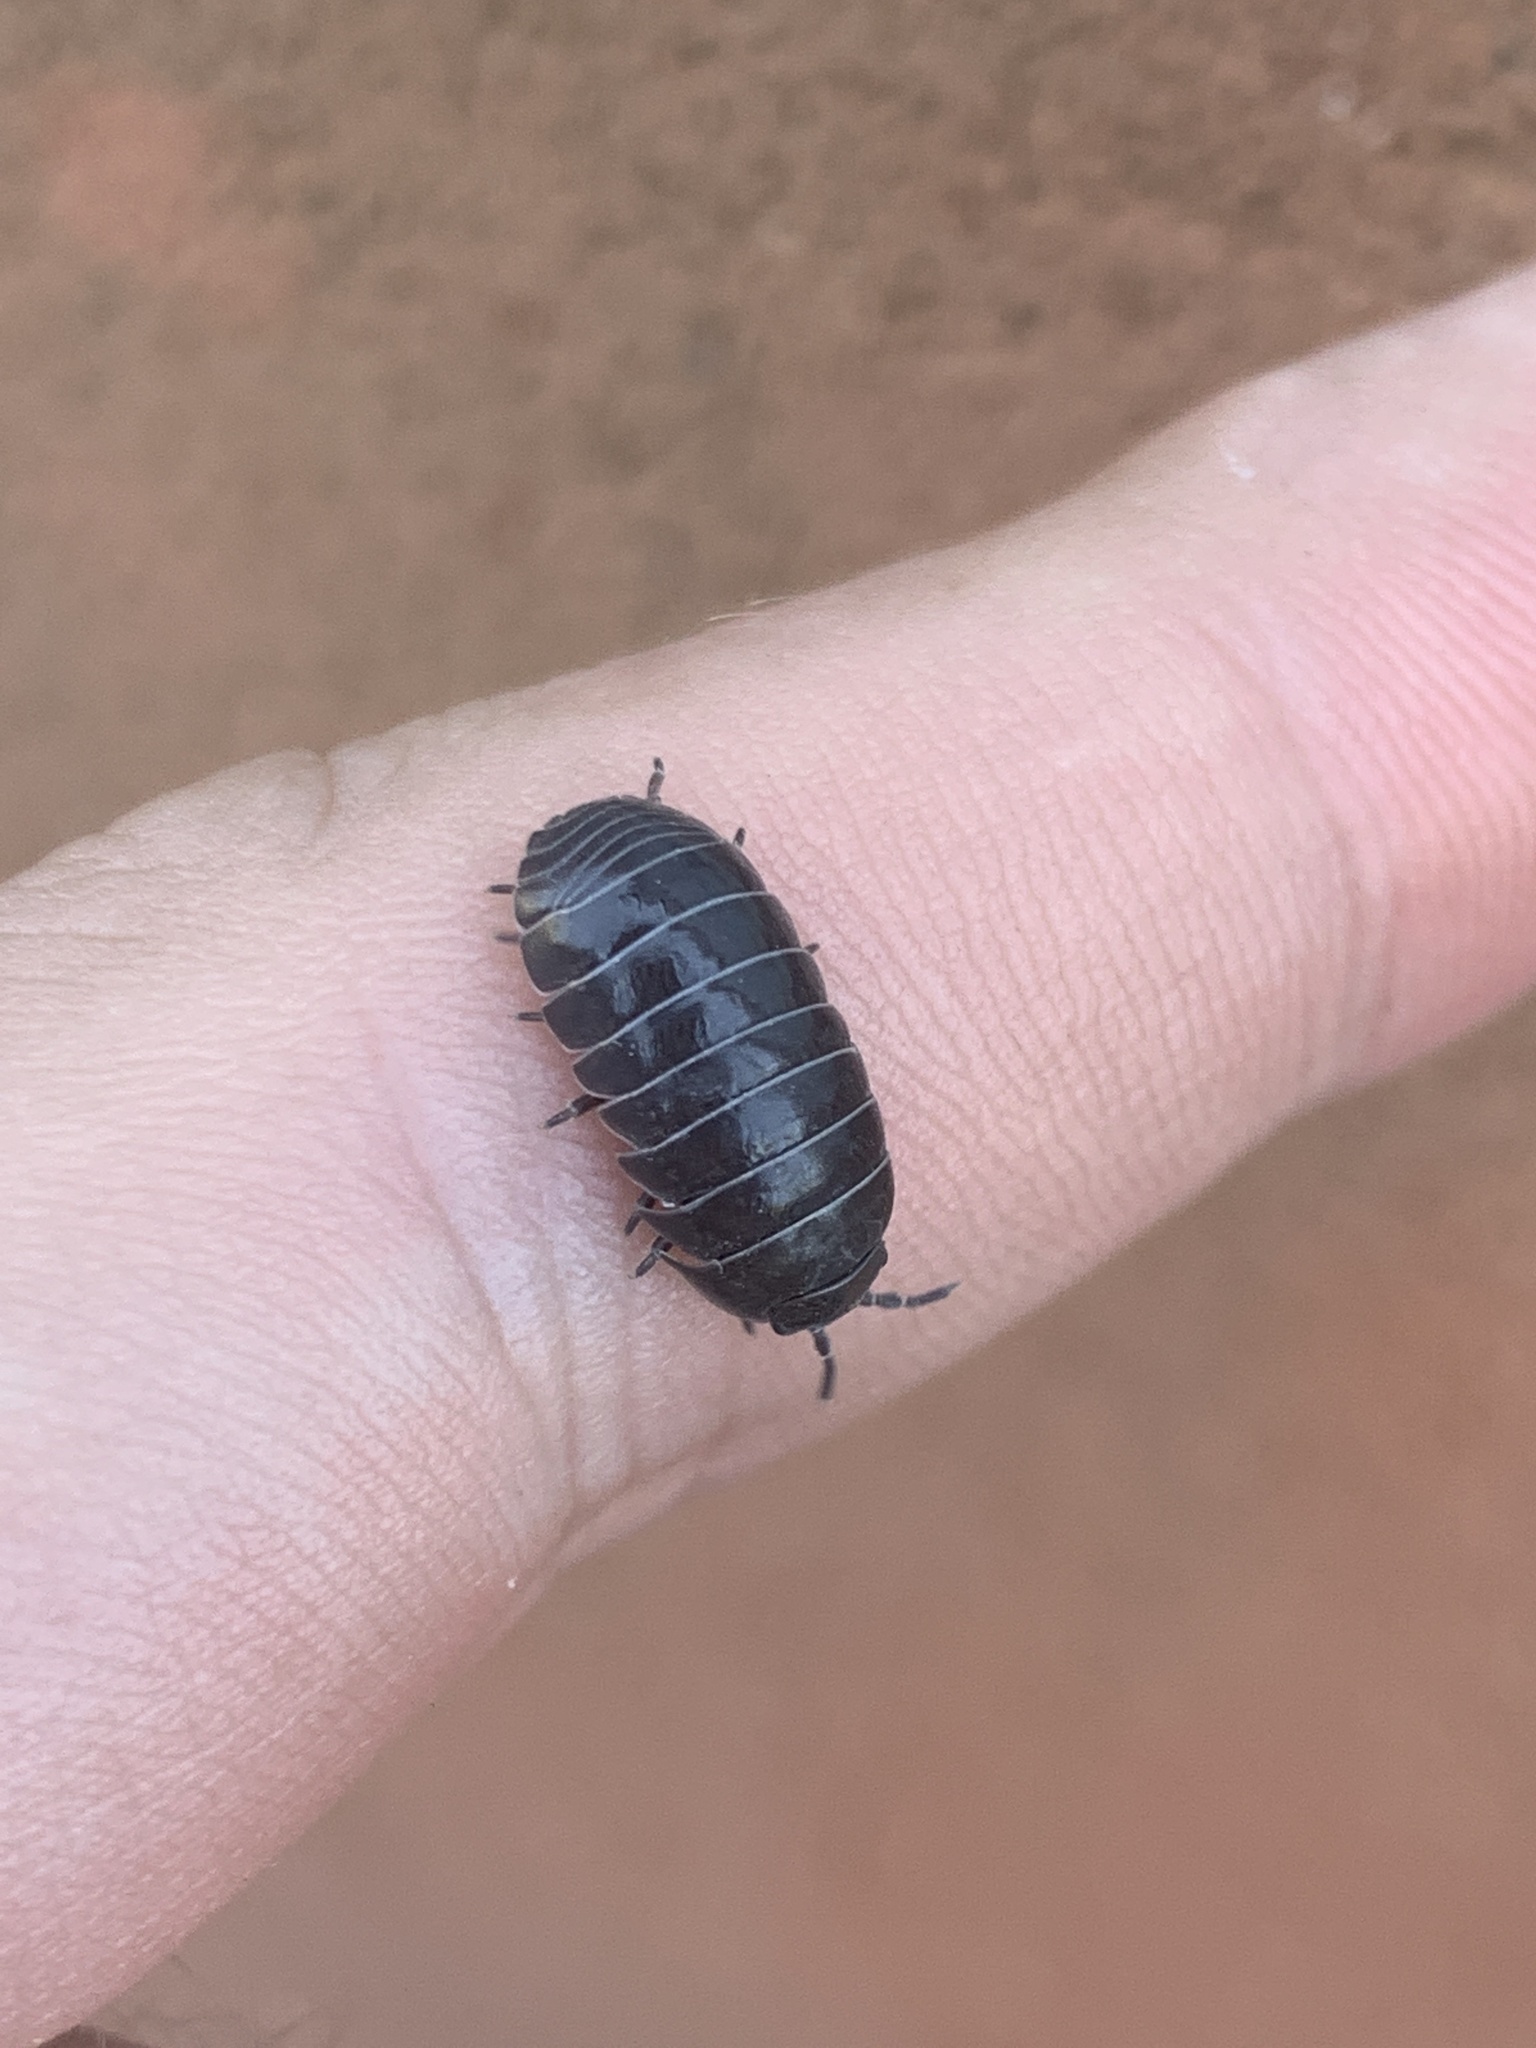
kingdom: Animalia
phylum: Arthropoda
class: Malacostraca
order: Isopoda
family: Armadillidiidae
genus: Armadillidium
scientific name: Armadillidium vulgare
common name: Common pill woodlouse
